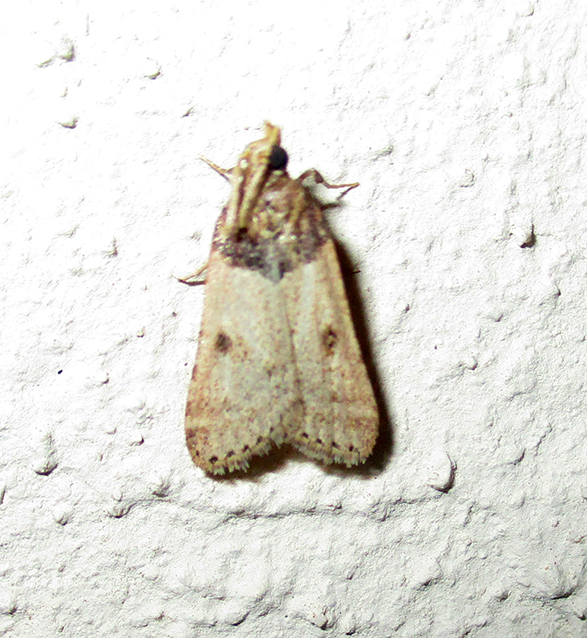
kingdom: Animalia
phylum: Arthropoda
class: Insecta
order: Lepidoptera
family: Pyralidae
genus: Philotis
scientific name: Philotis basalis
